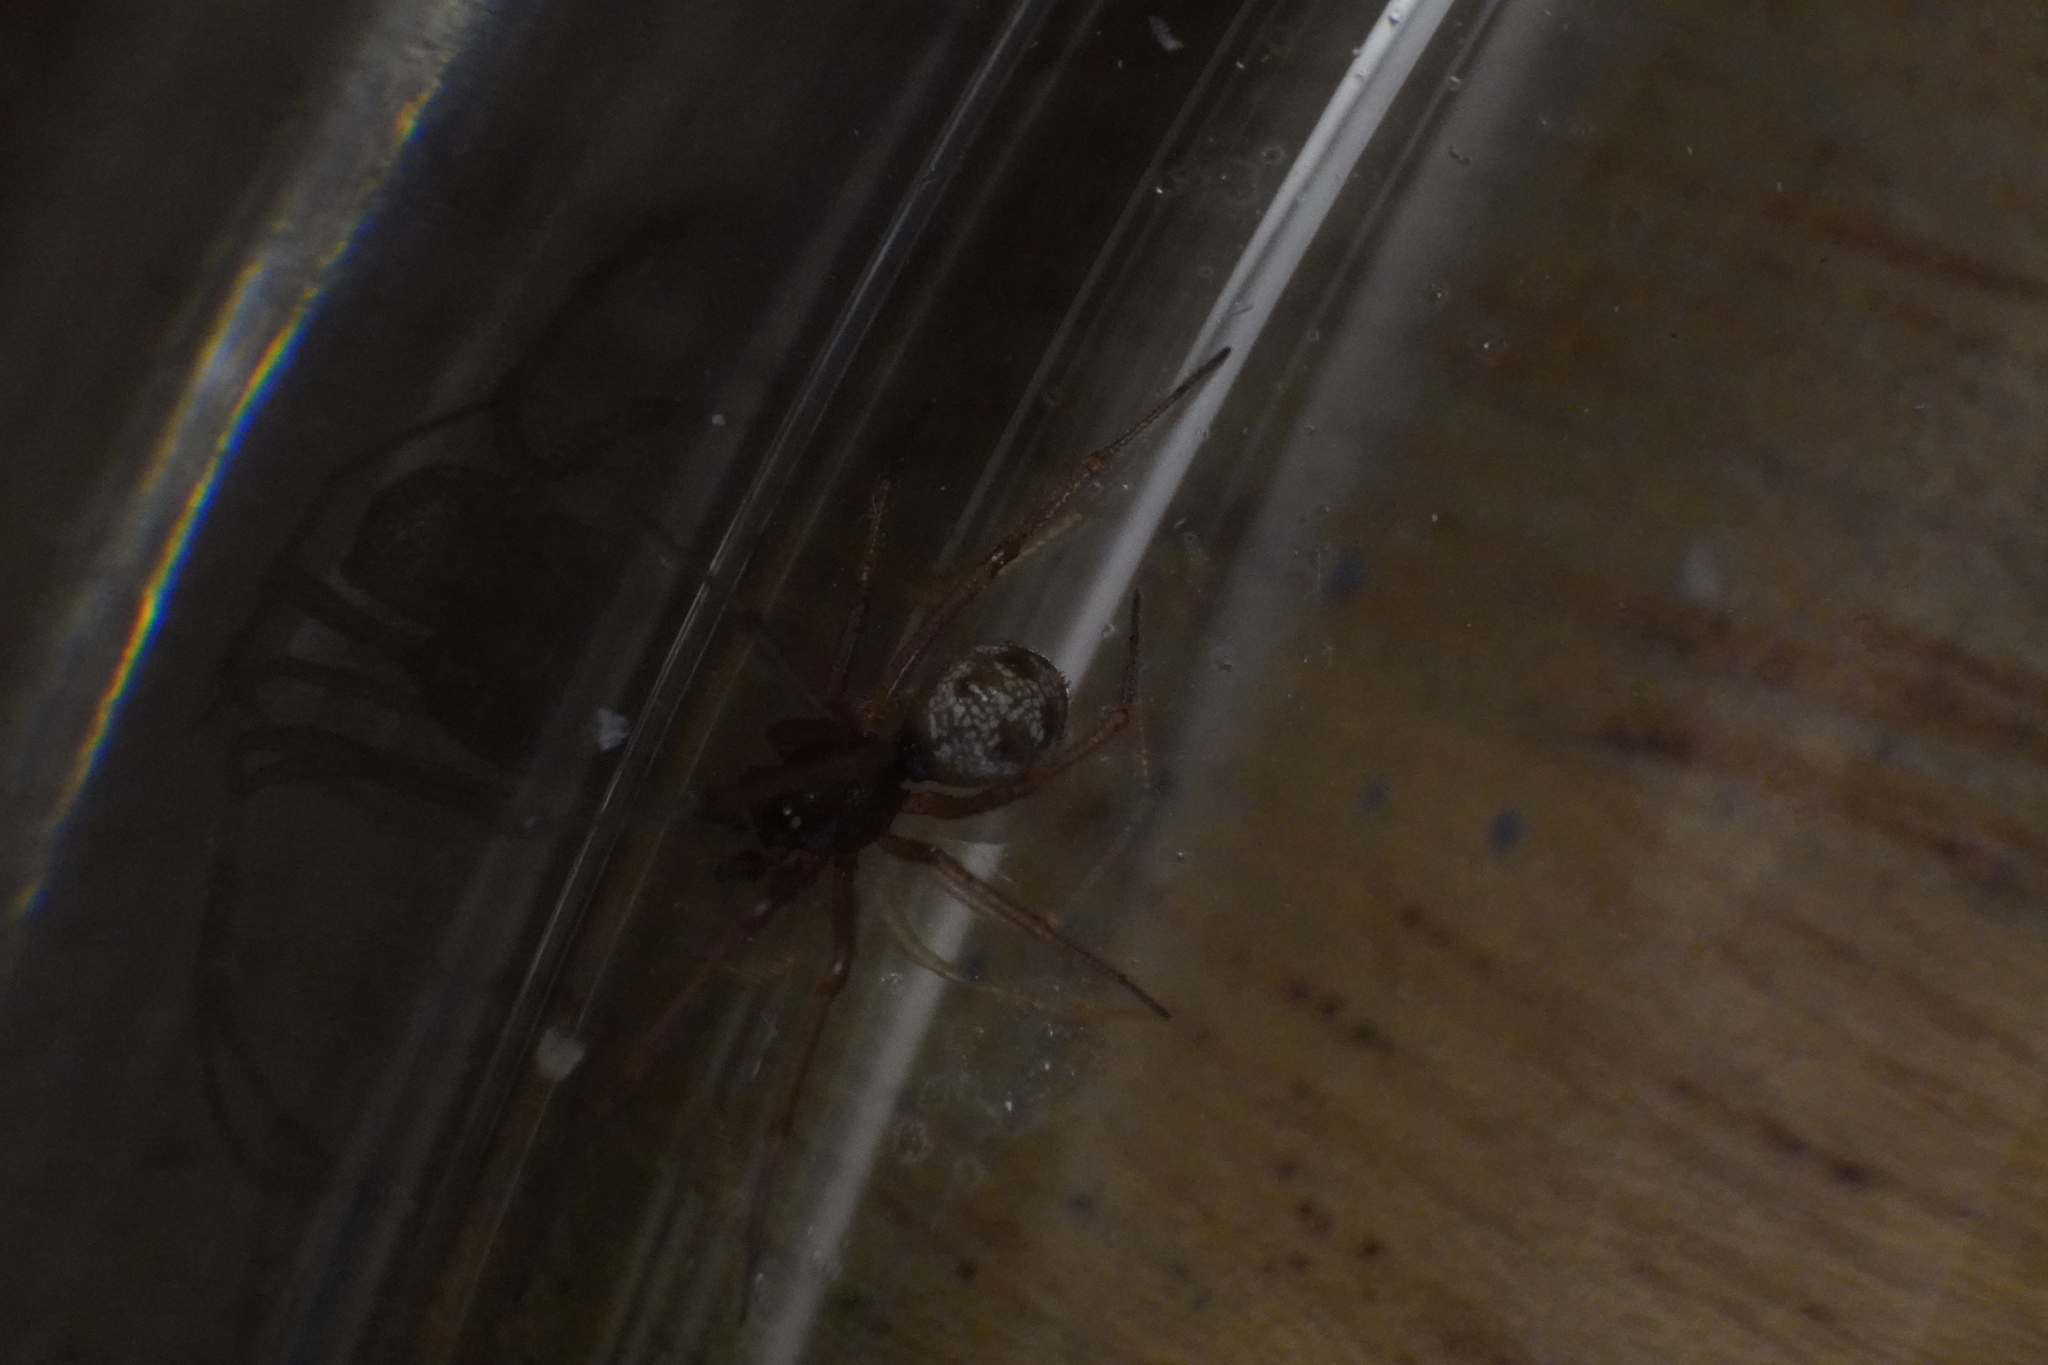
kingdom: Animalia
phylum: Arthropoda
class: Arachnida
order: Araneae
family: Theridiidae
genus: Steatoda
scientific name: Steatoda triangulosa
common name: Triangulate bud spider
